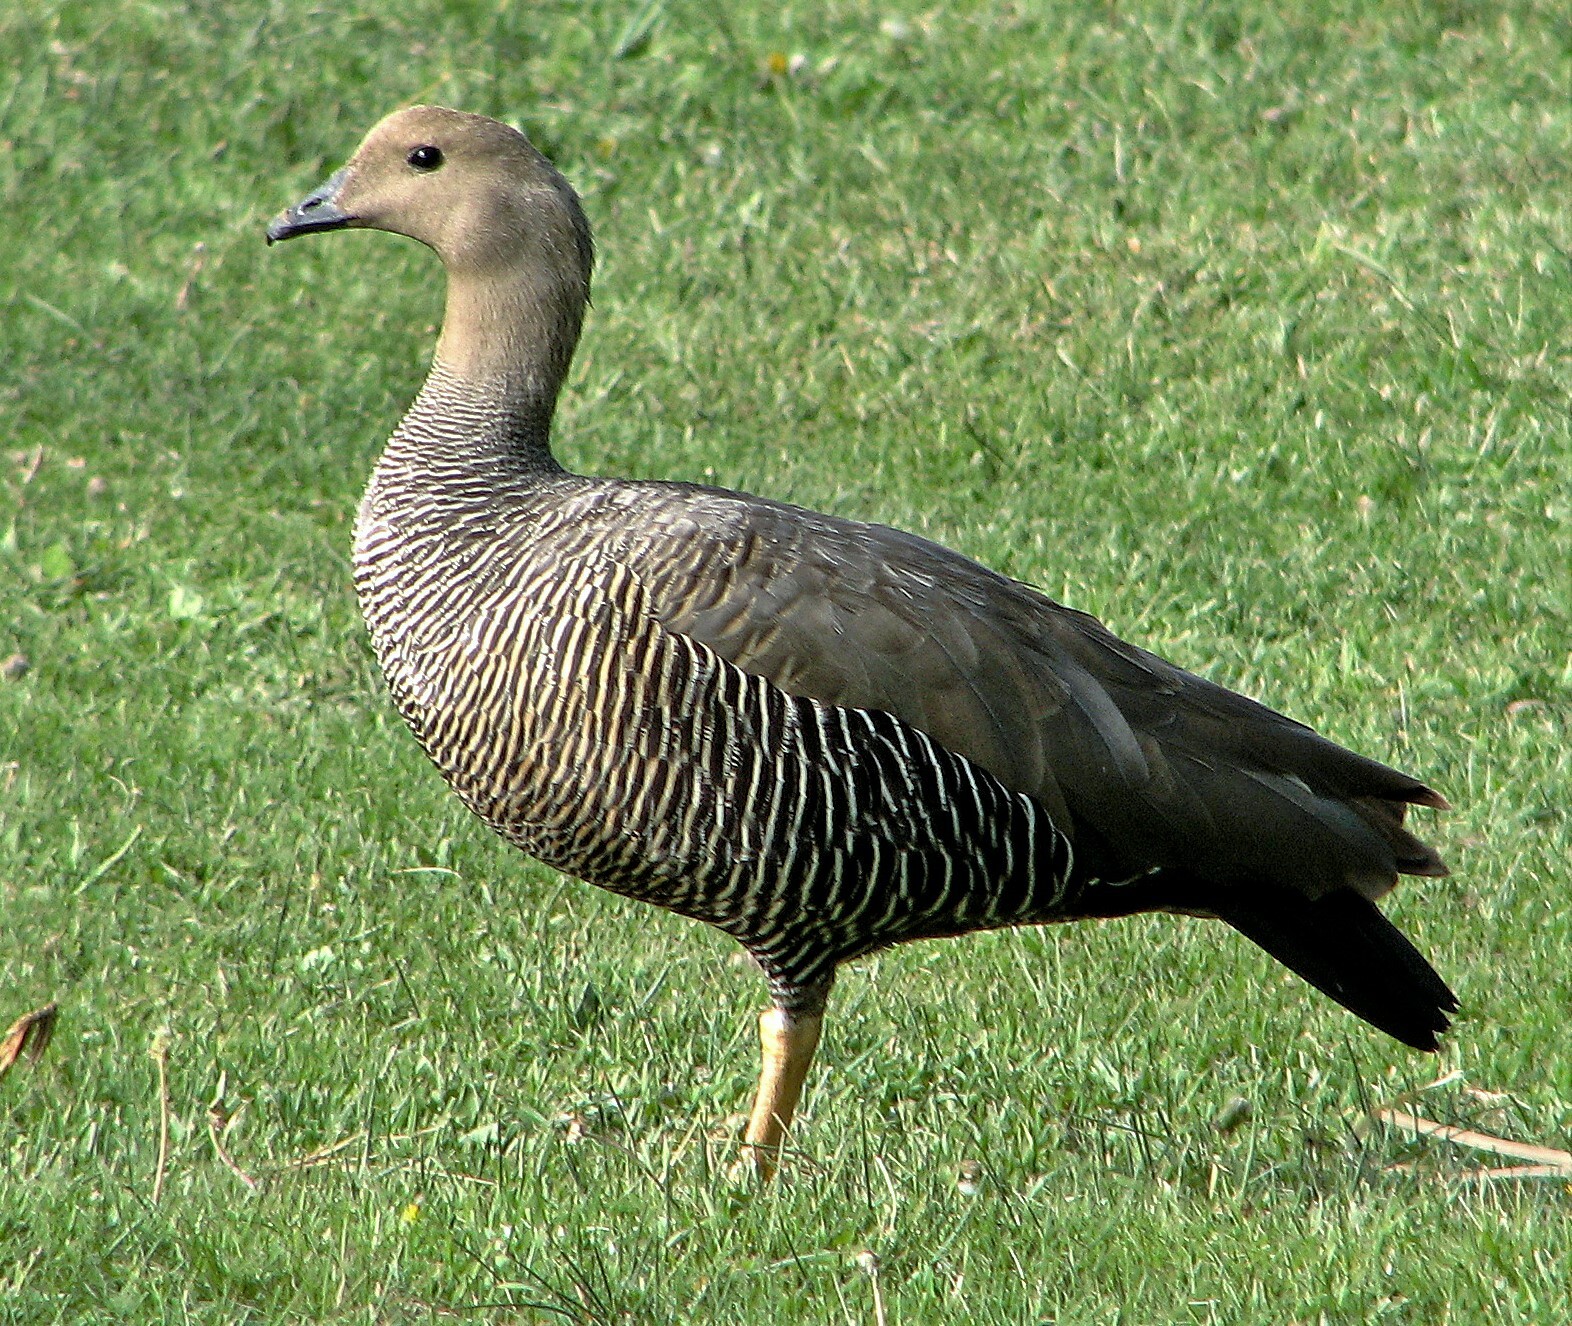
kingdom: Animalia
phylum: Chordata
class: Aves
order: Anseriformes
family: Anatidae
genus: Chloephaga
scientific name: Chloephaga picta
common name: Upland goose
